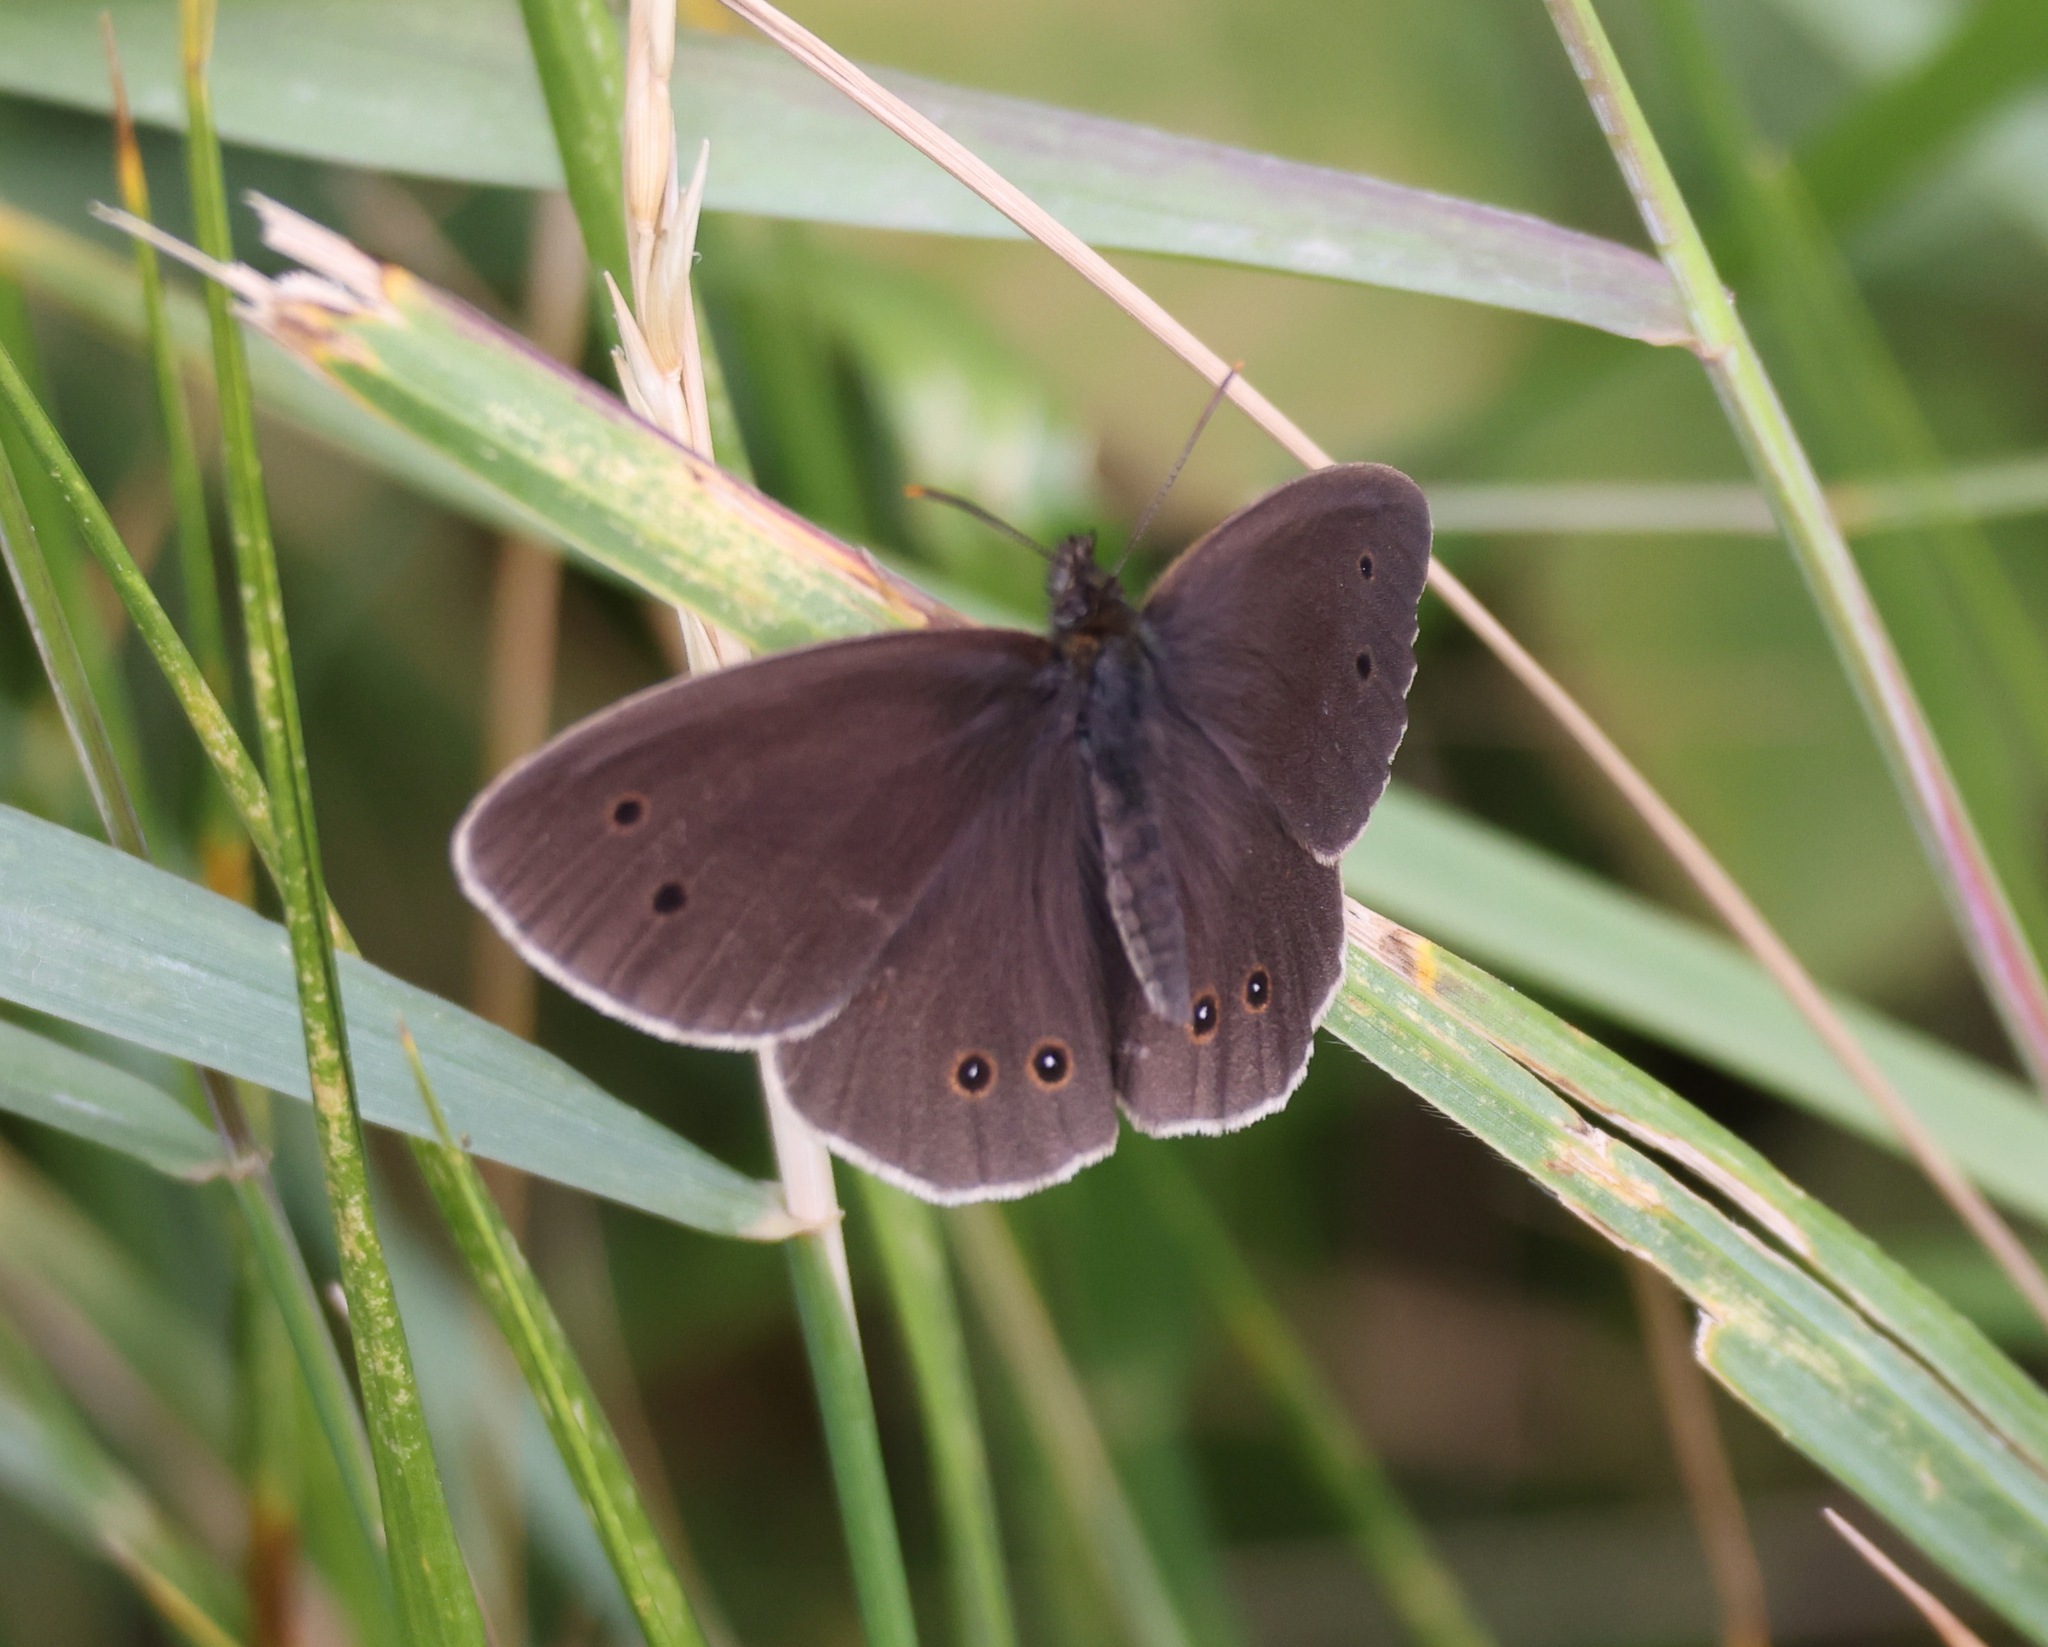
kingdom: Animalia
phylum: Arthropoda
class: Insecta
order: Lepidoptera
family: Nymphalidae
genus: Aphantopus
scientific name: Aphantopus hyperantus
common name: Ringlet
